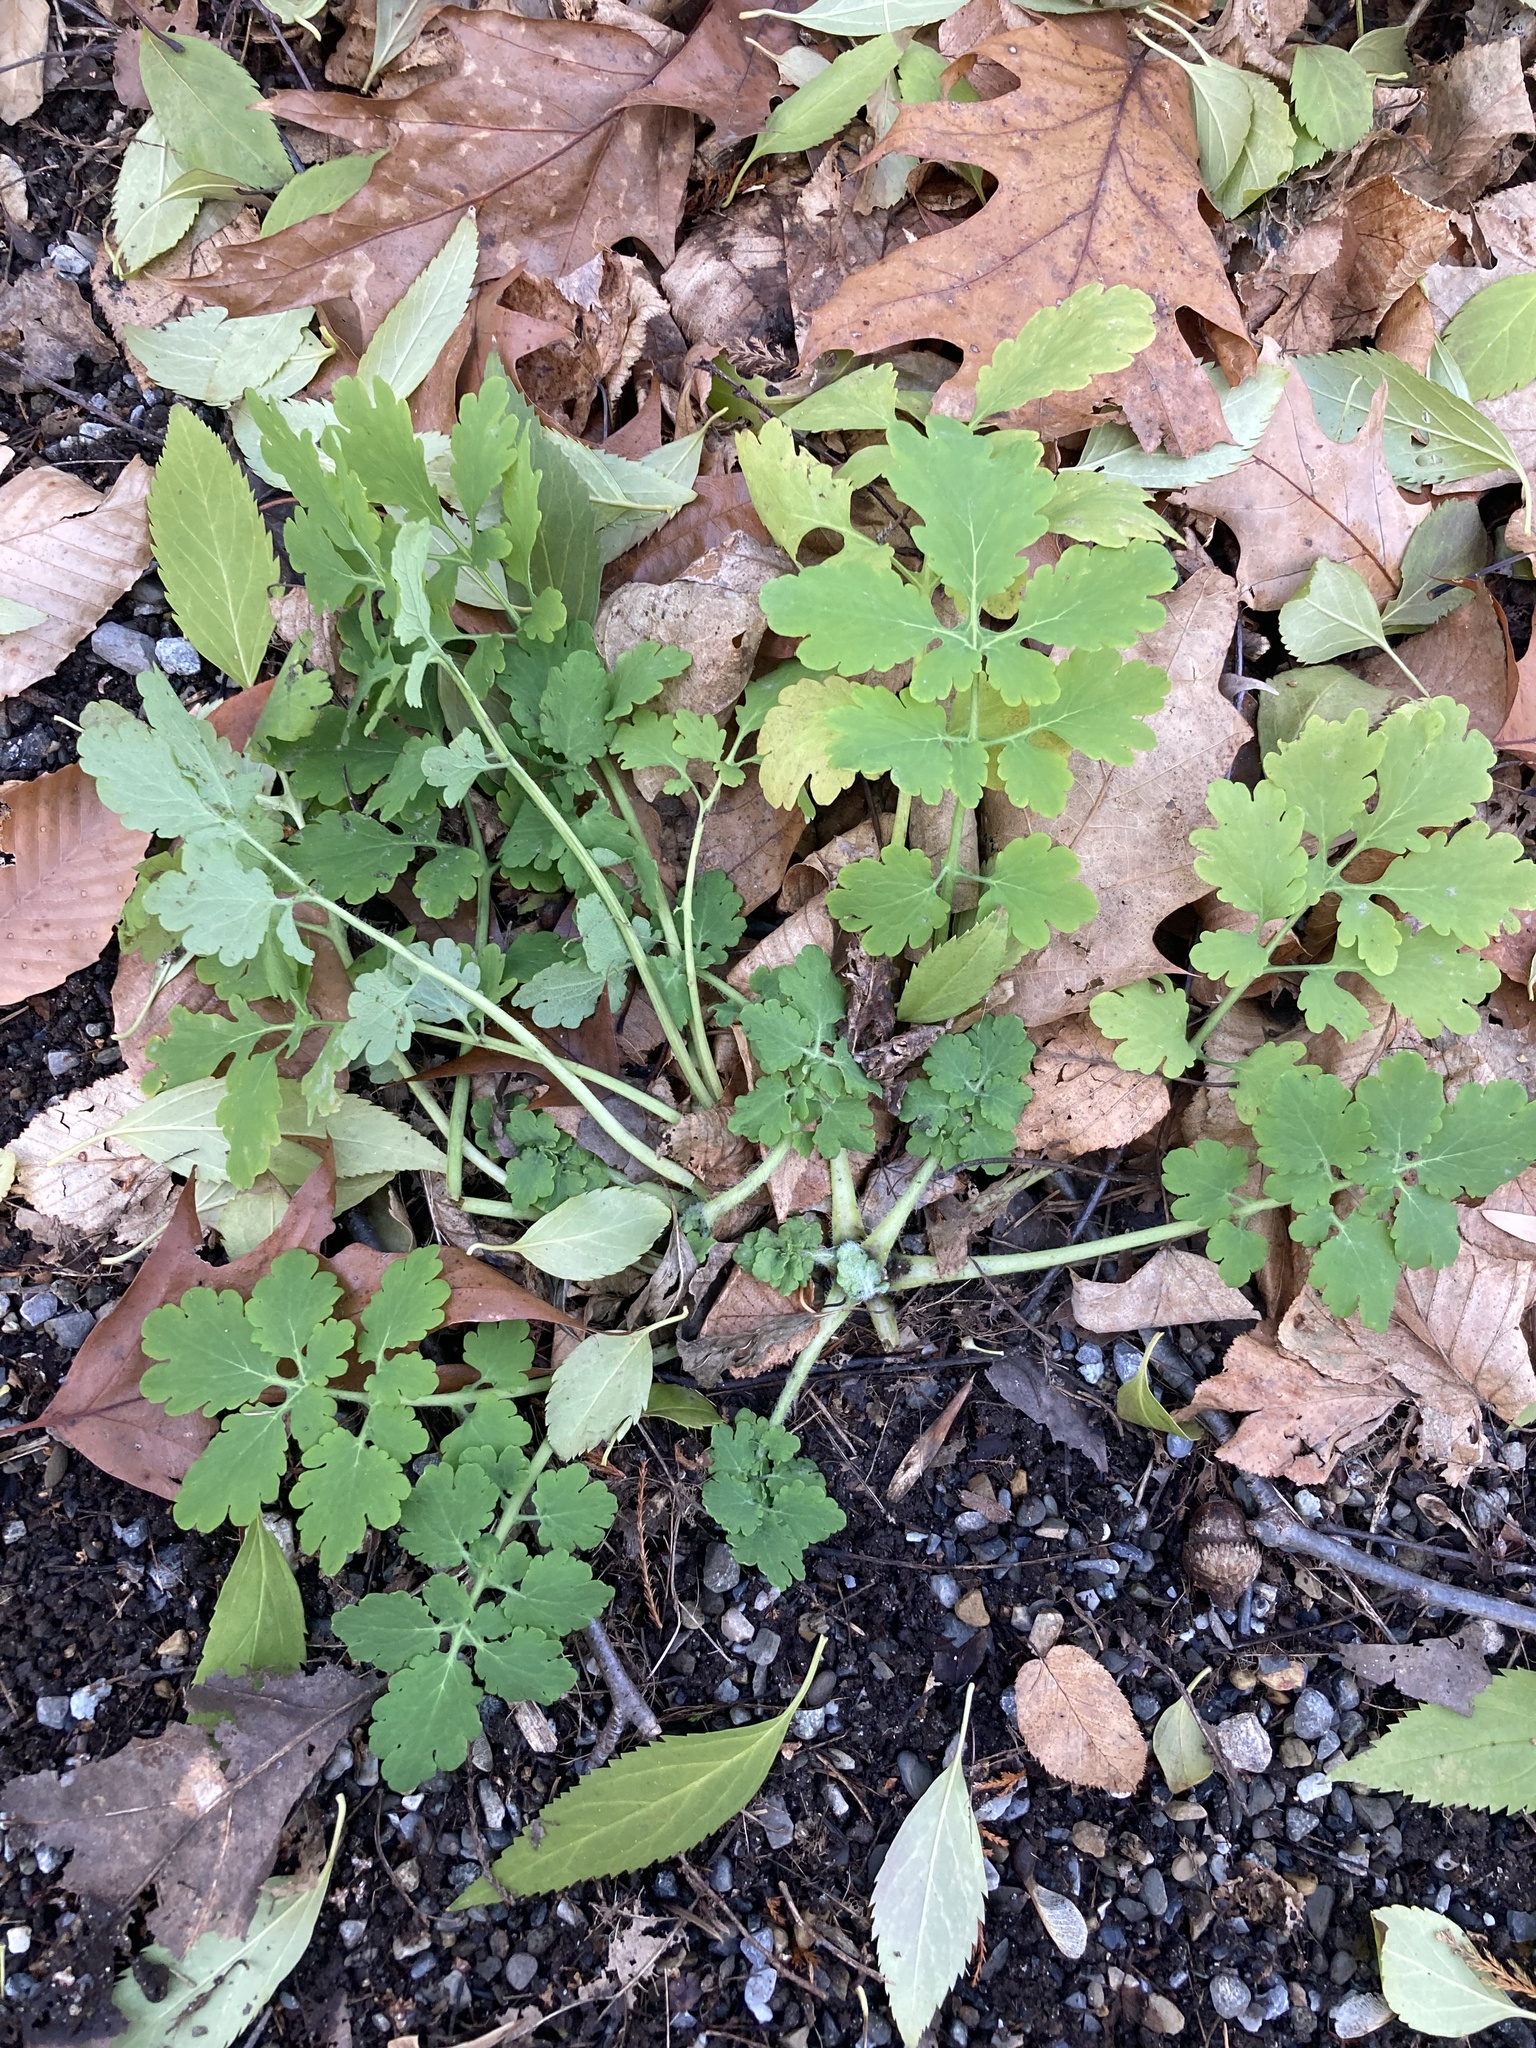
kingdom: Plantae
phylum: Tracheophyta
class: Magnoliopsida
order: Ranunculales
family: Papaveraceae
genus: Chelidonium
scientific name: Chelidonium majus
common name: Greater celandine
